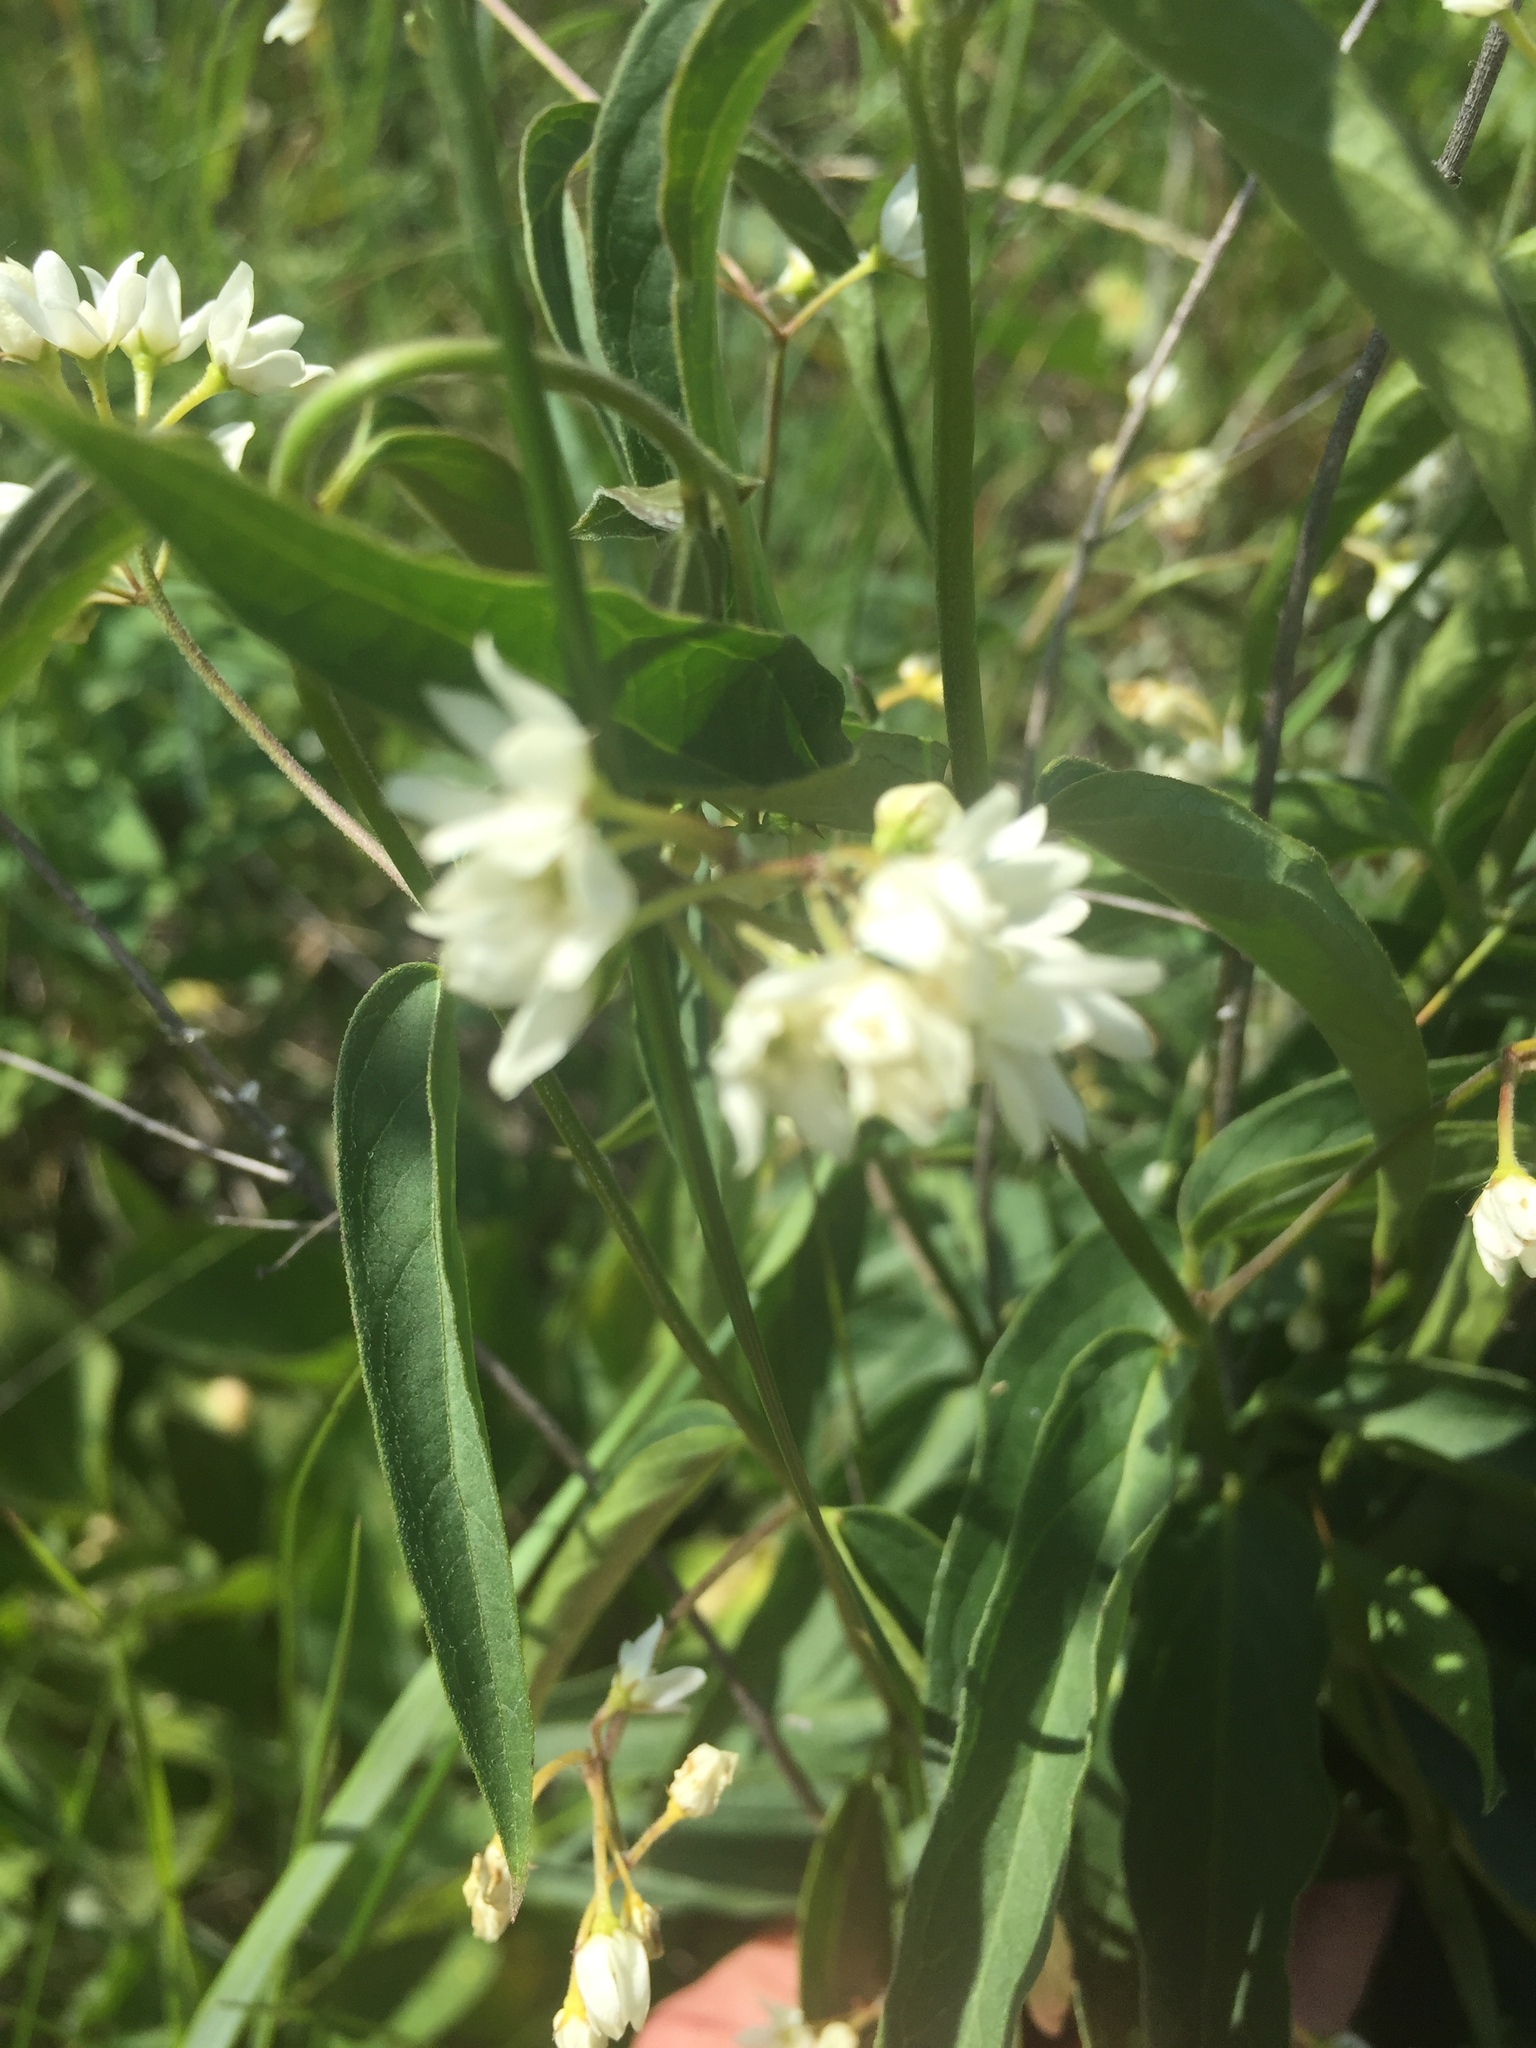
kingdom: Plantae
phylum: Tracheophyta
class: Magnoliopsida
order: Gentianales
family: Apocynaceae
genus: Vincetoxicum
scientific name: Vincetoxicum hirundinaria
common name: White swallowwort
